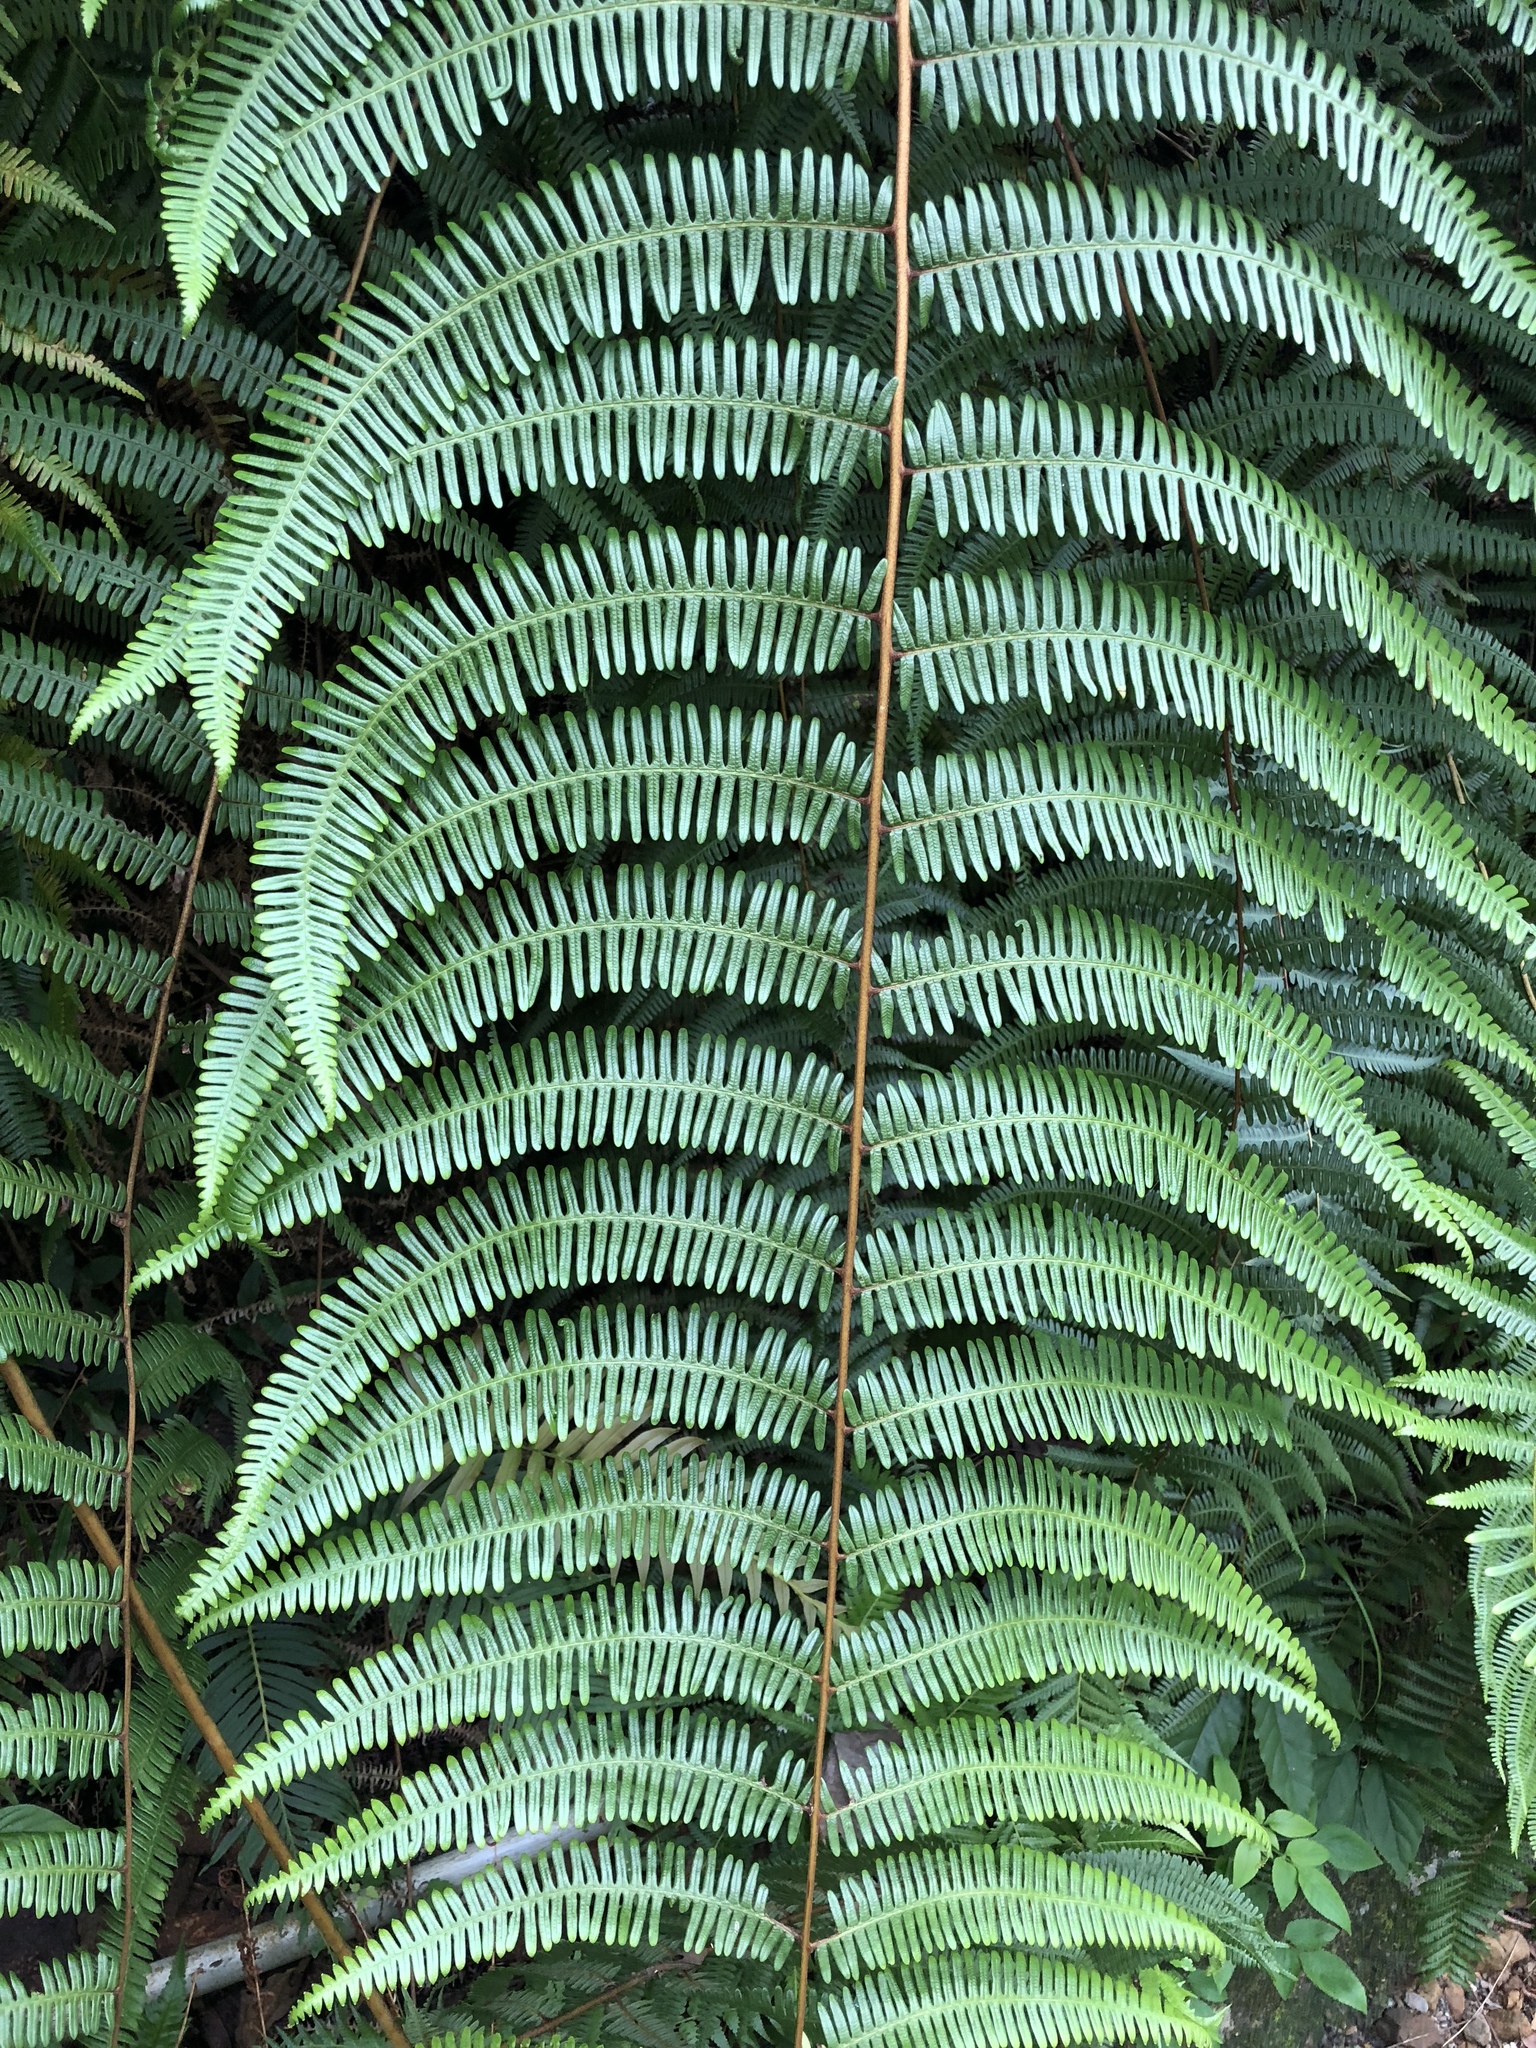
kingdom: Plantae
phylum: Tracheophyta
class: Polypodiopsida
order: Gleicheniales
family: Gleicheniaceae
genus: Diplopterygium
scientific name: Diplopterygium blotianum
